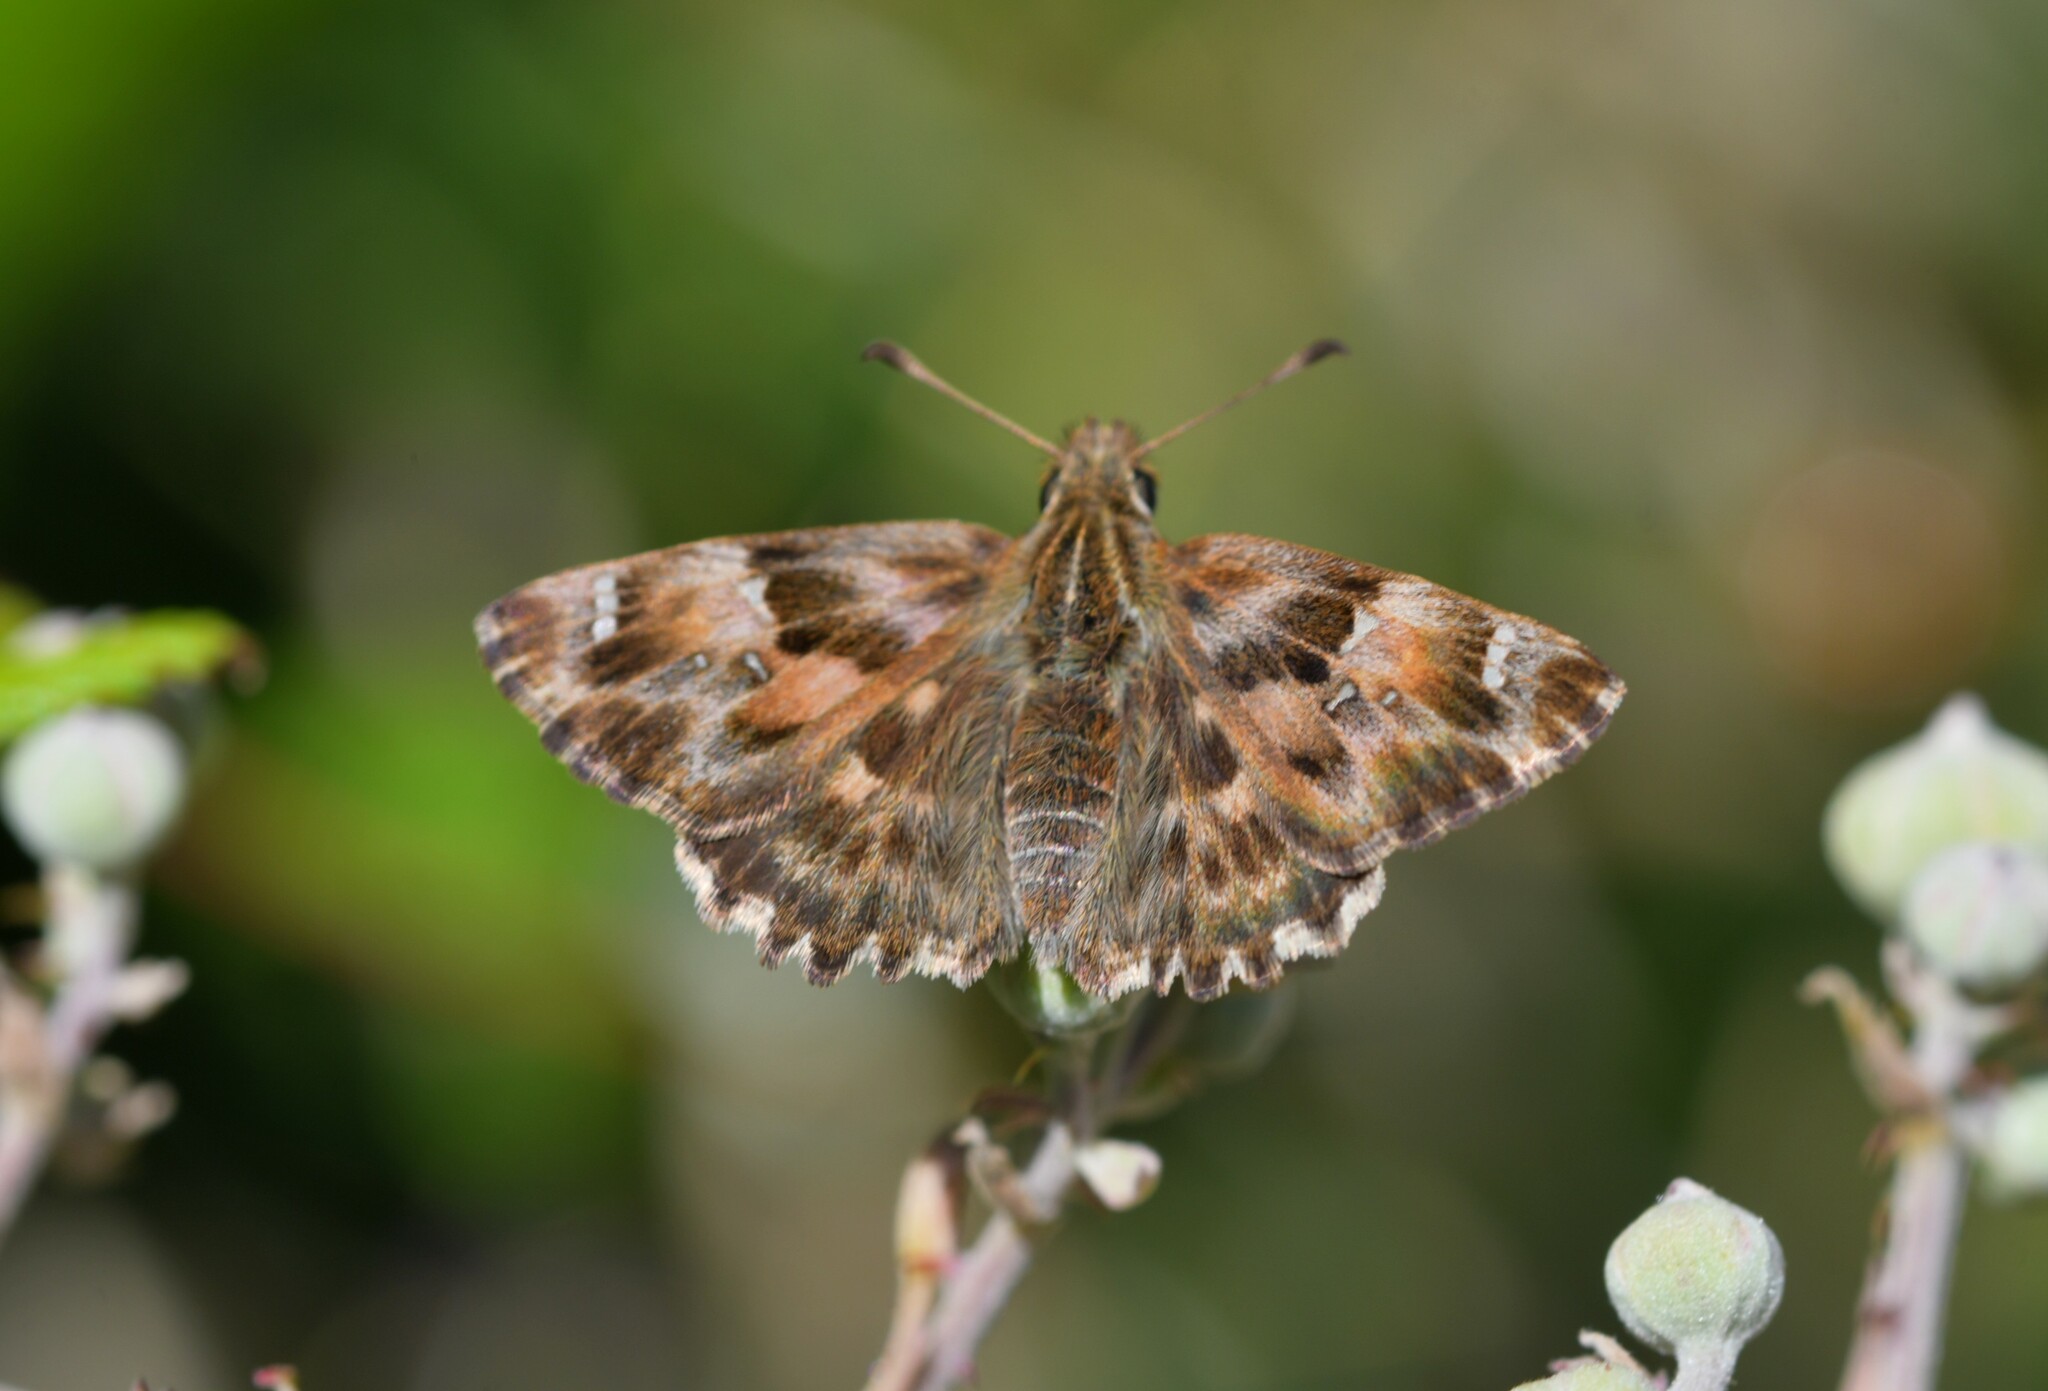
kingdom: Animalia
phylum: Arthropoda
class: Insecta
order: Lepidoptera
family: Hesperiidae
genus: Carcharodus
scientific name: Carcharodus alceae
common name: Mallow skipper
